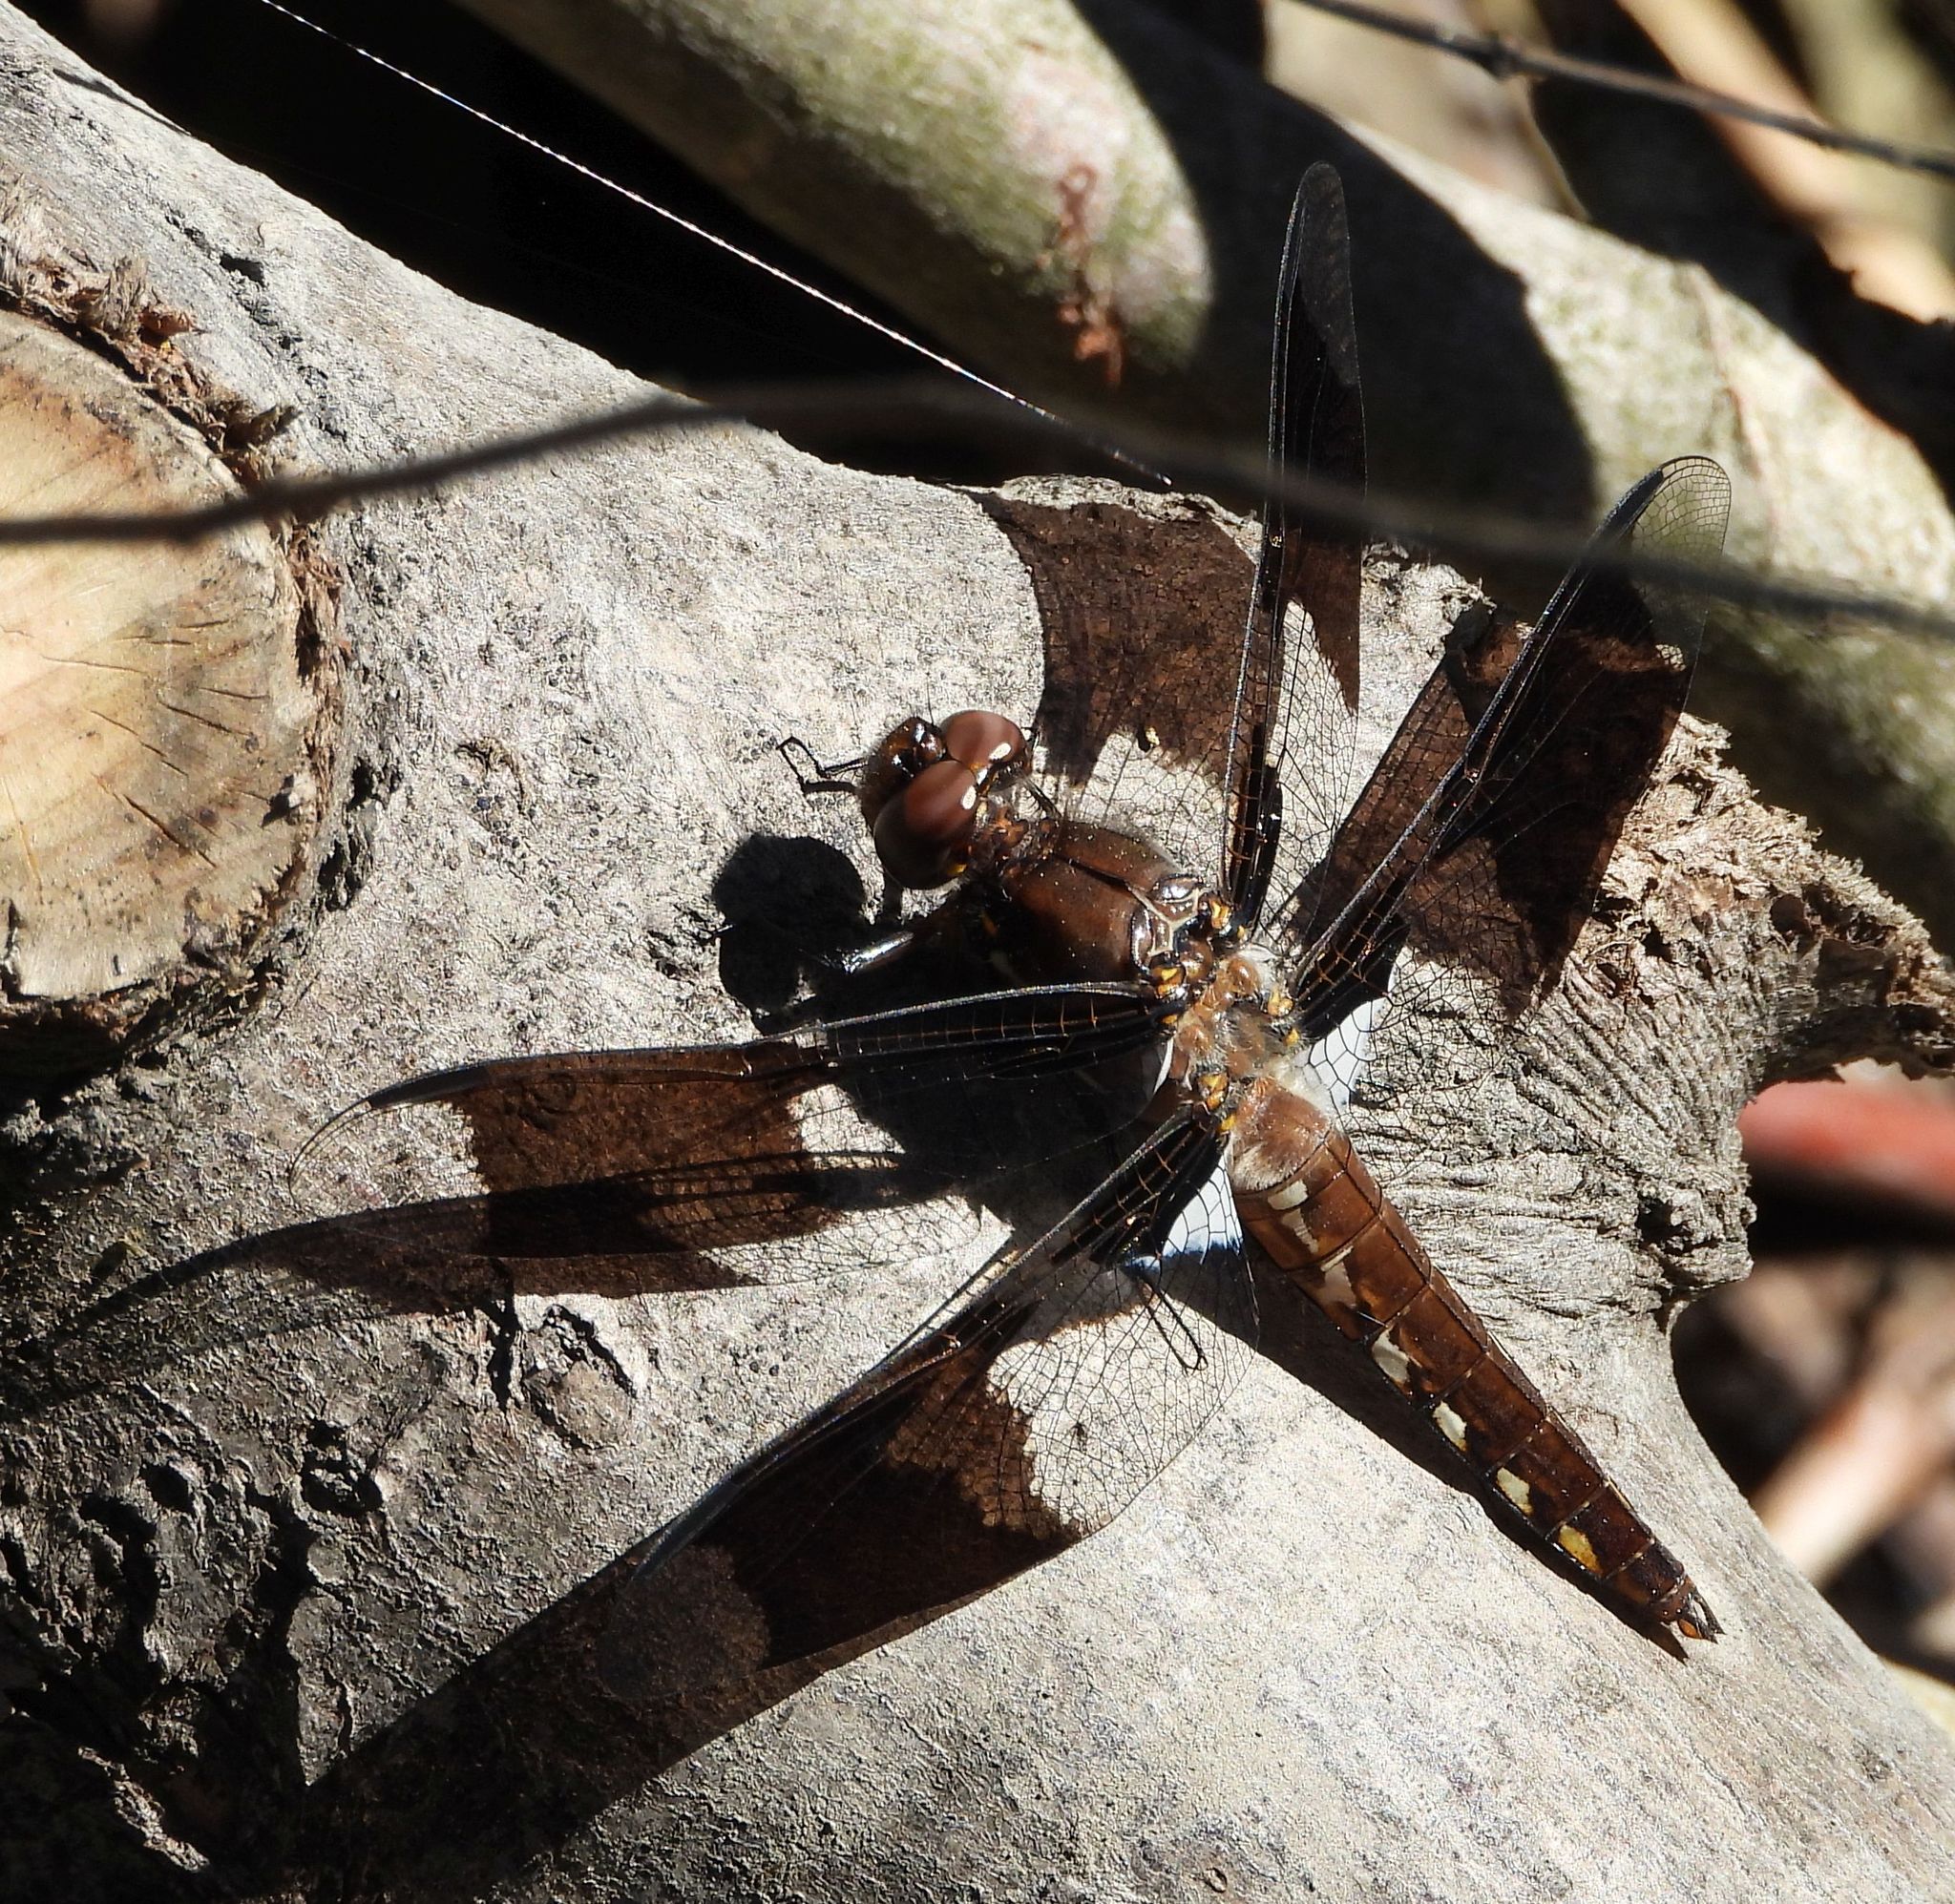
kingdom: Animalia
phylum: Arthropoda
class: Insecta
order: Odonata
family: Libellulidae
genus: Plathemis
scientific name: Plathemis lydia
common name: Common whitetail
